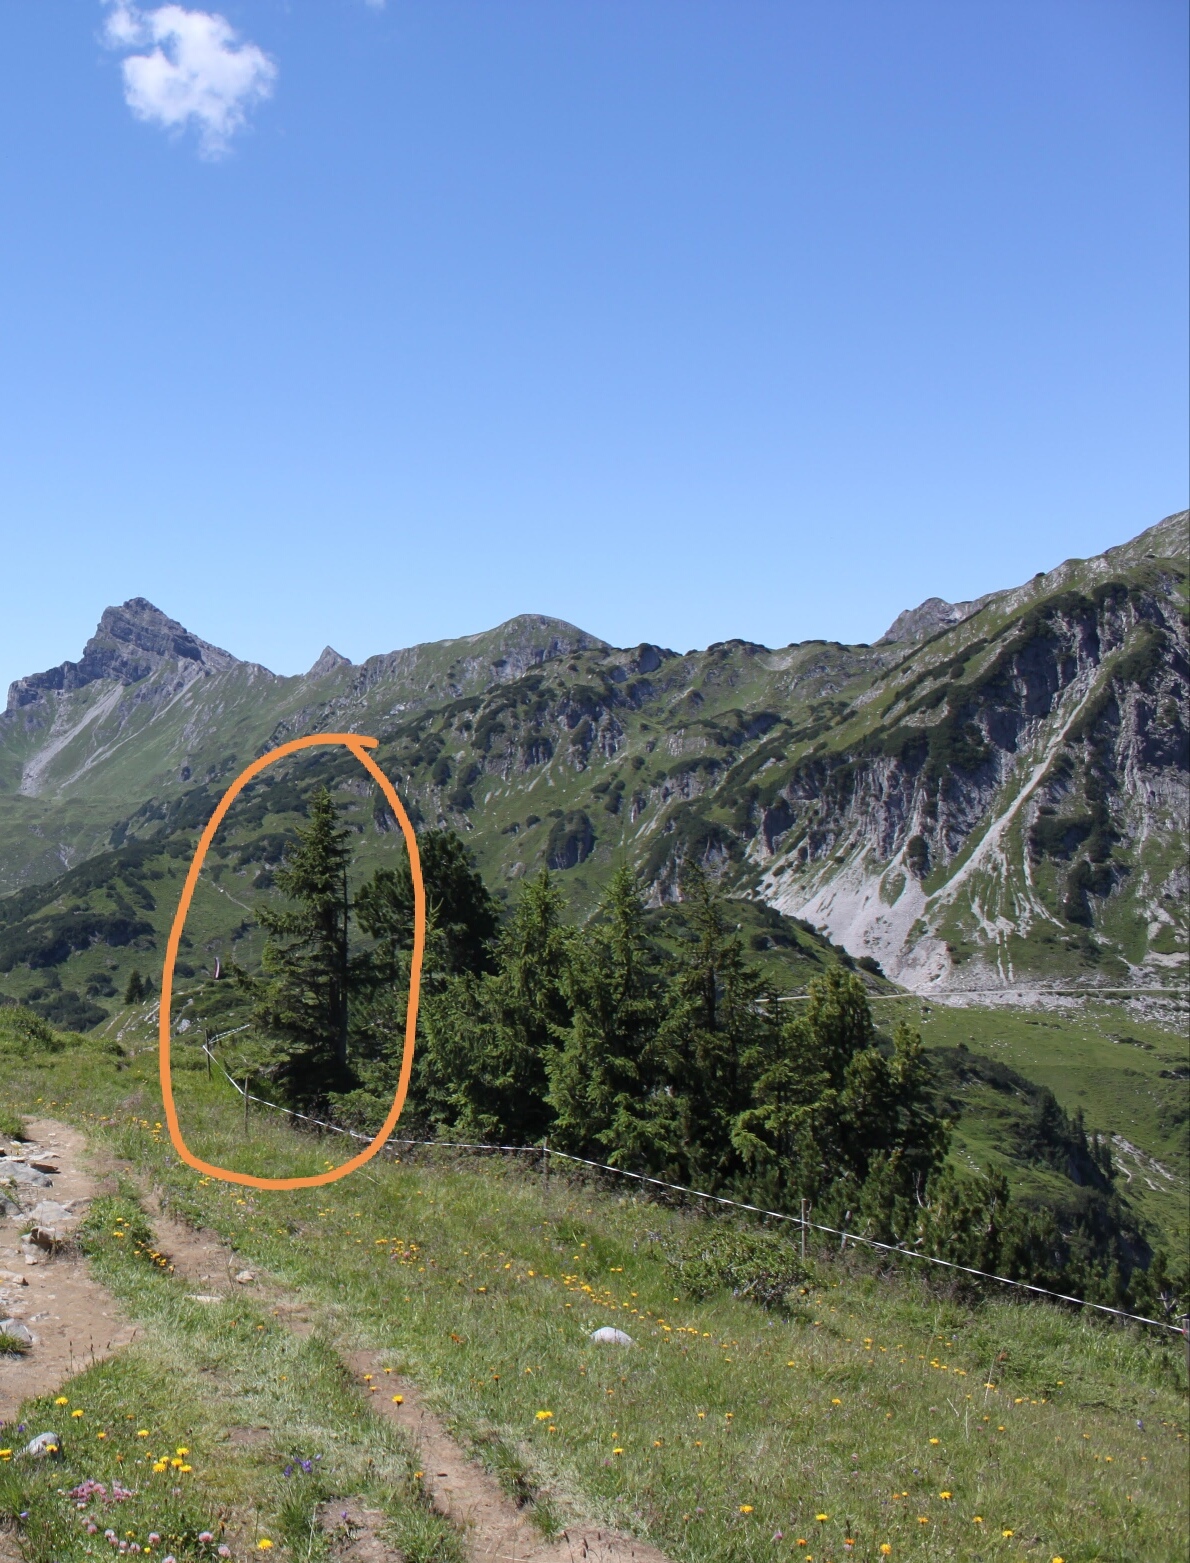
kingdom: Plantae
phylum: Tracheophyta
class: Pinopsida
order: Pinales
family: Pinaceae
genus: Picea
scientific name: Picea abies
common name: Norway spruce
